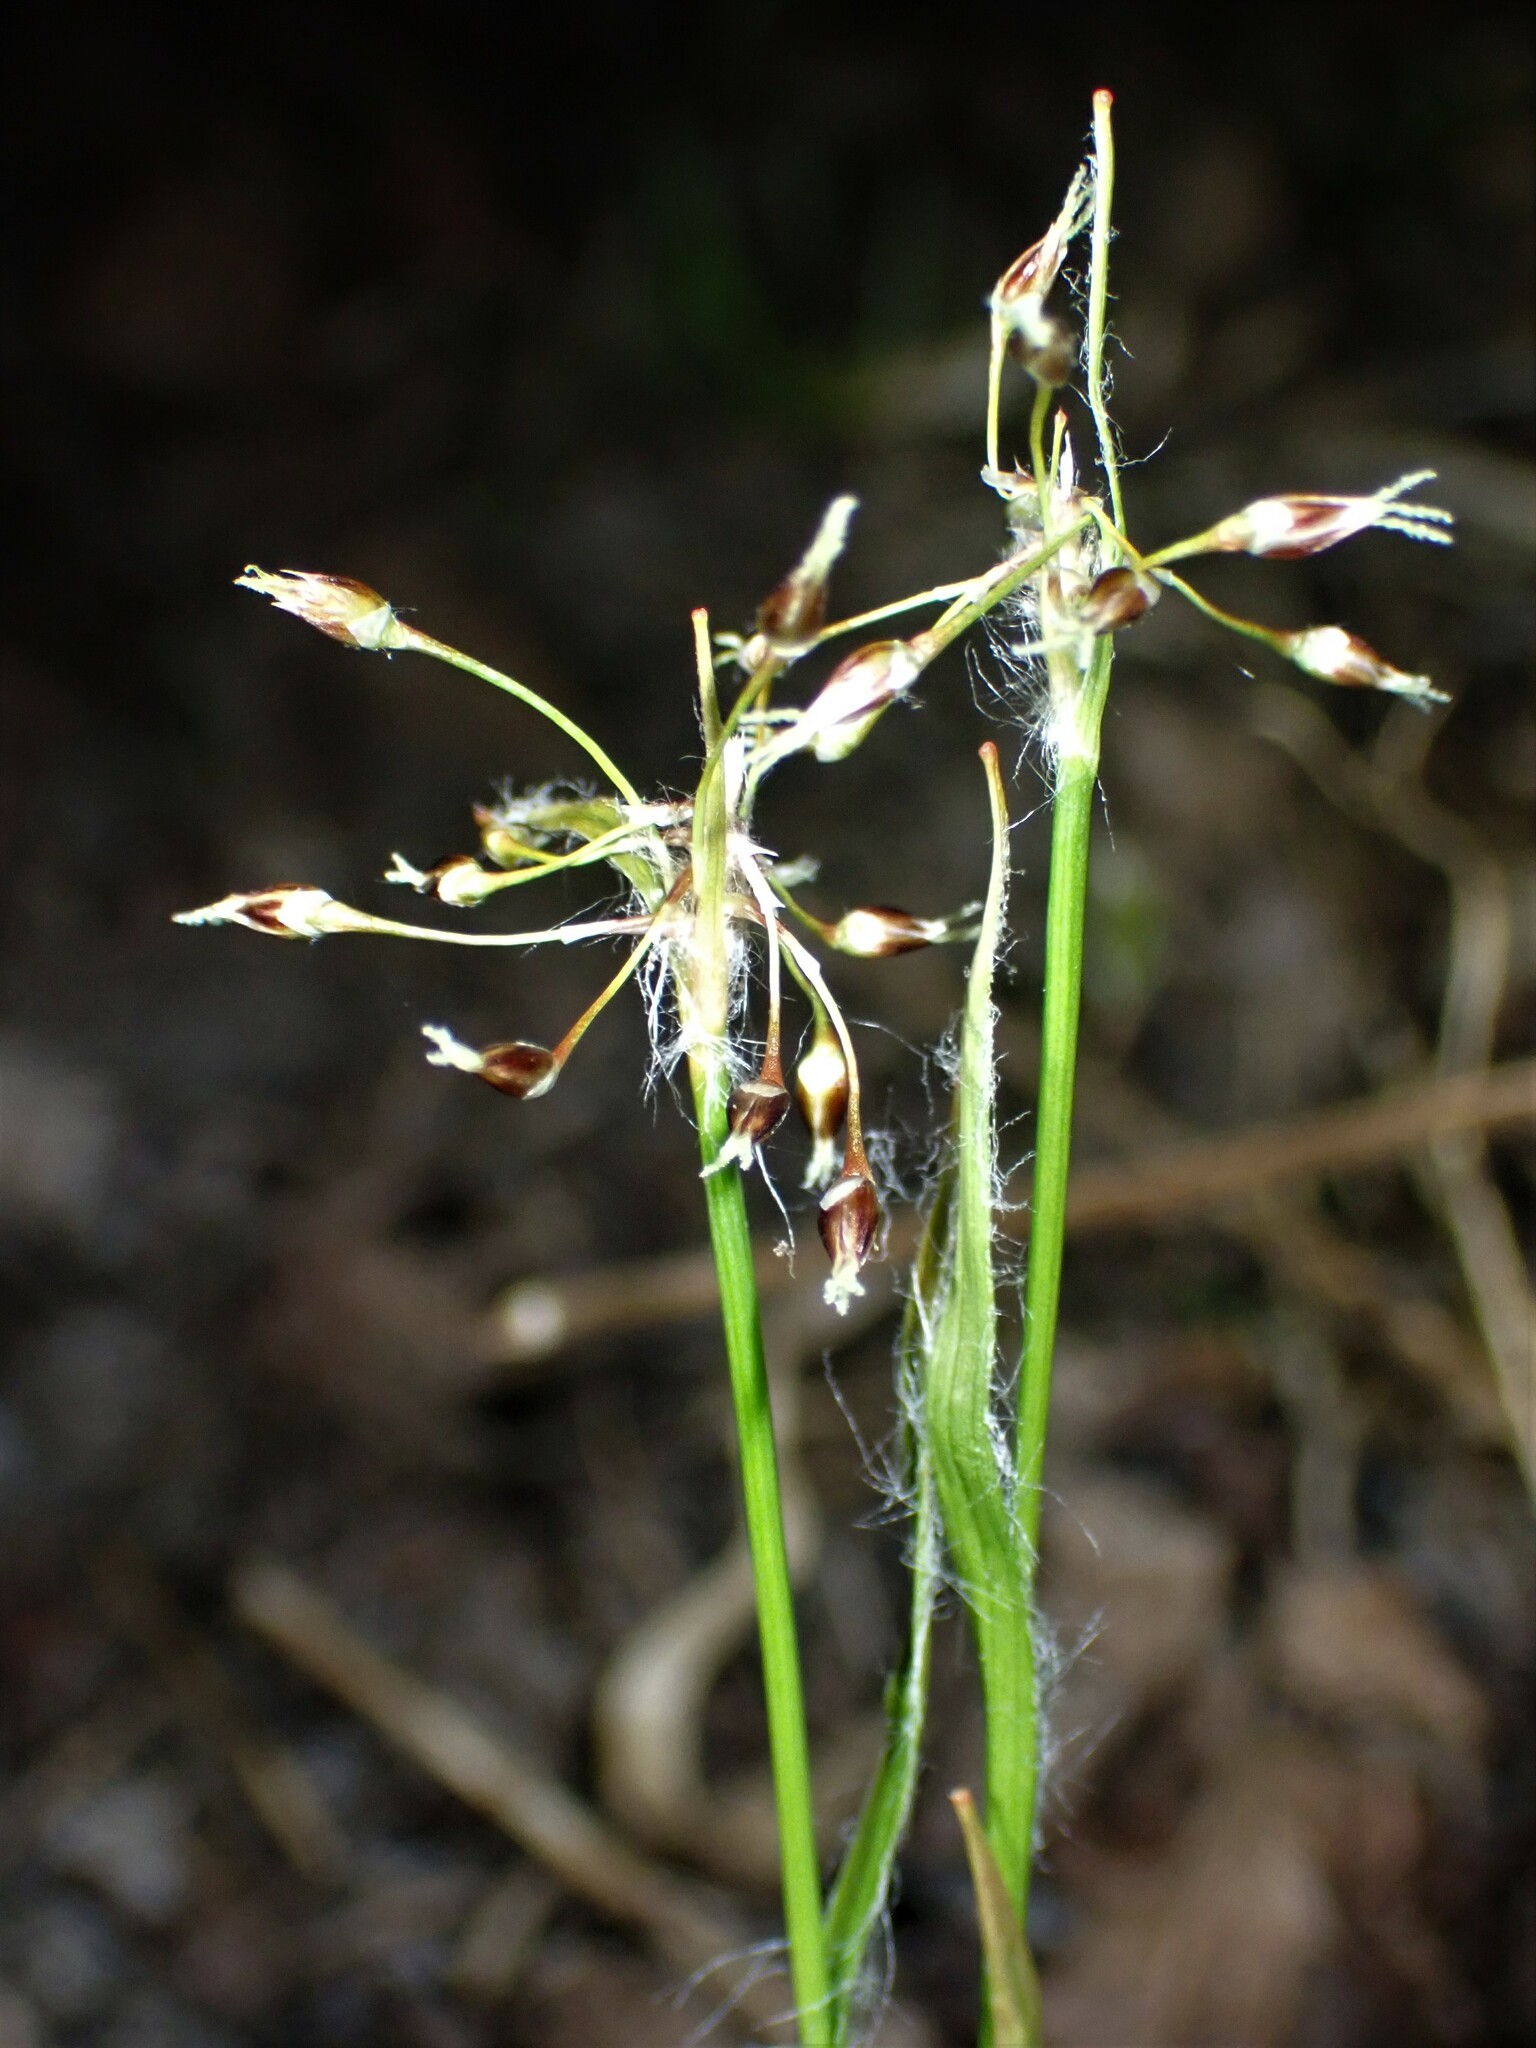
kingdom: Plantae
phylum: Tracheophyta
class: Liliopsida
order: Poales
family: Juncaceae
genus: Luzula
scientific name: Luzula acuminata
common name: Hairy woodrush
